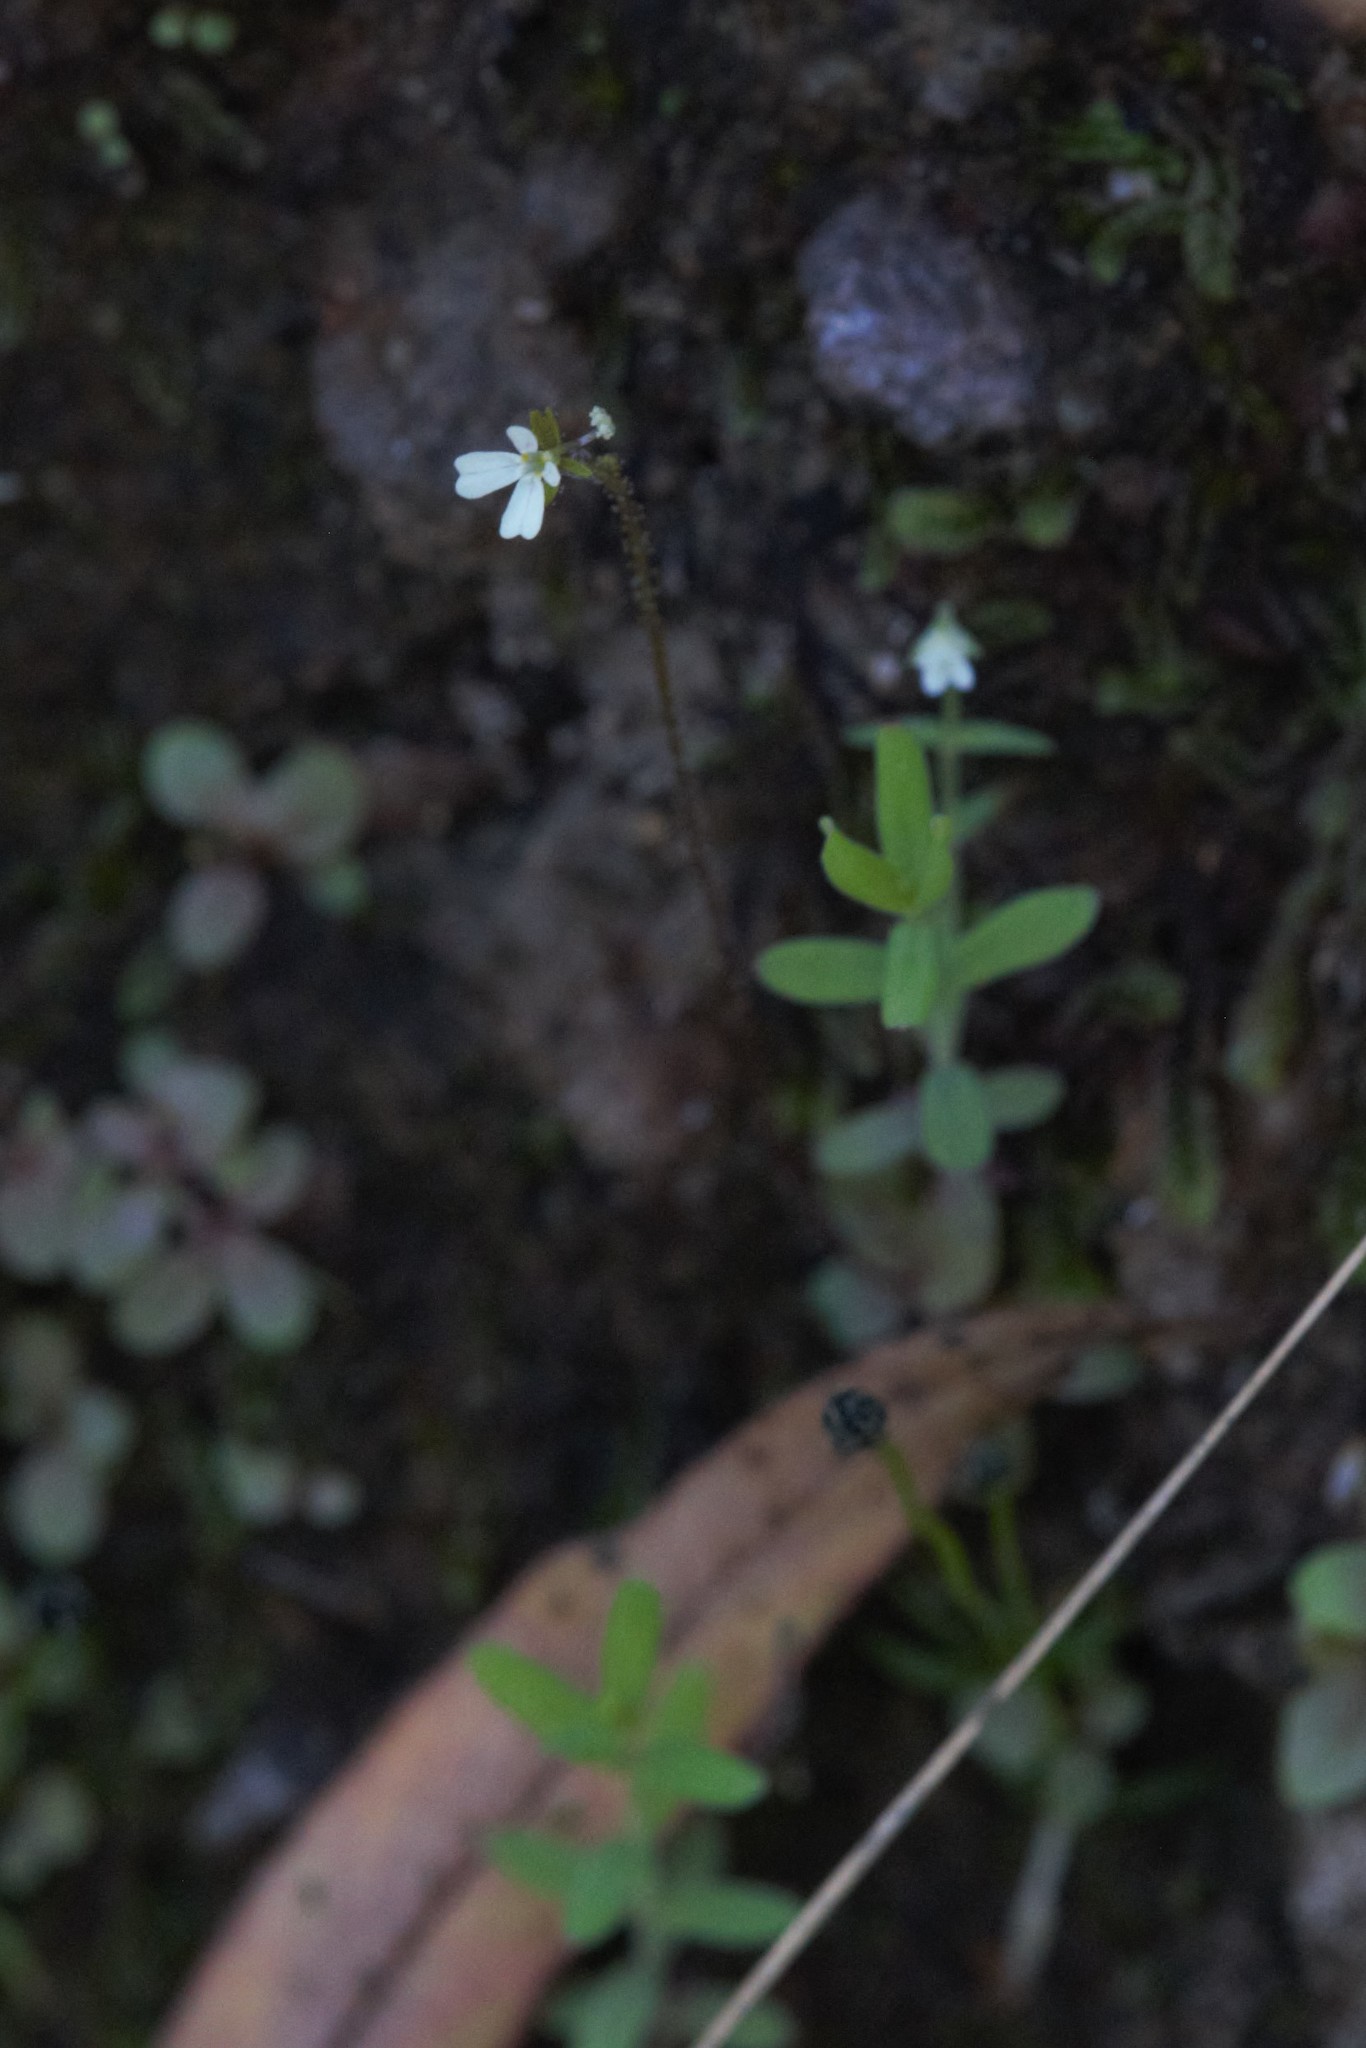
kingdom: Plantae
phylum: Tracheophyta
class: Magnoliopsida
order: Asterales
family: Stylidiaceae
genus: Stylidium
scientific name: Stylidium tenerum
